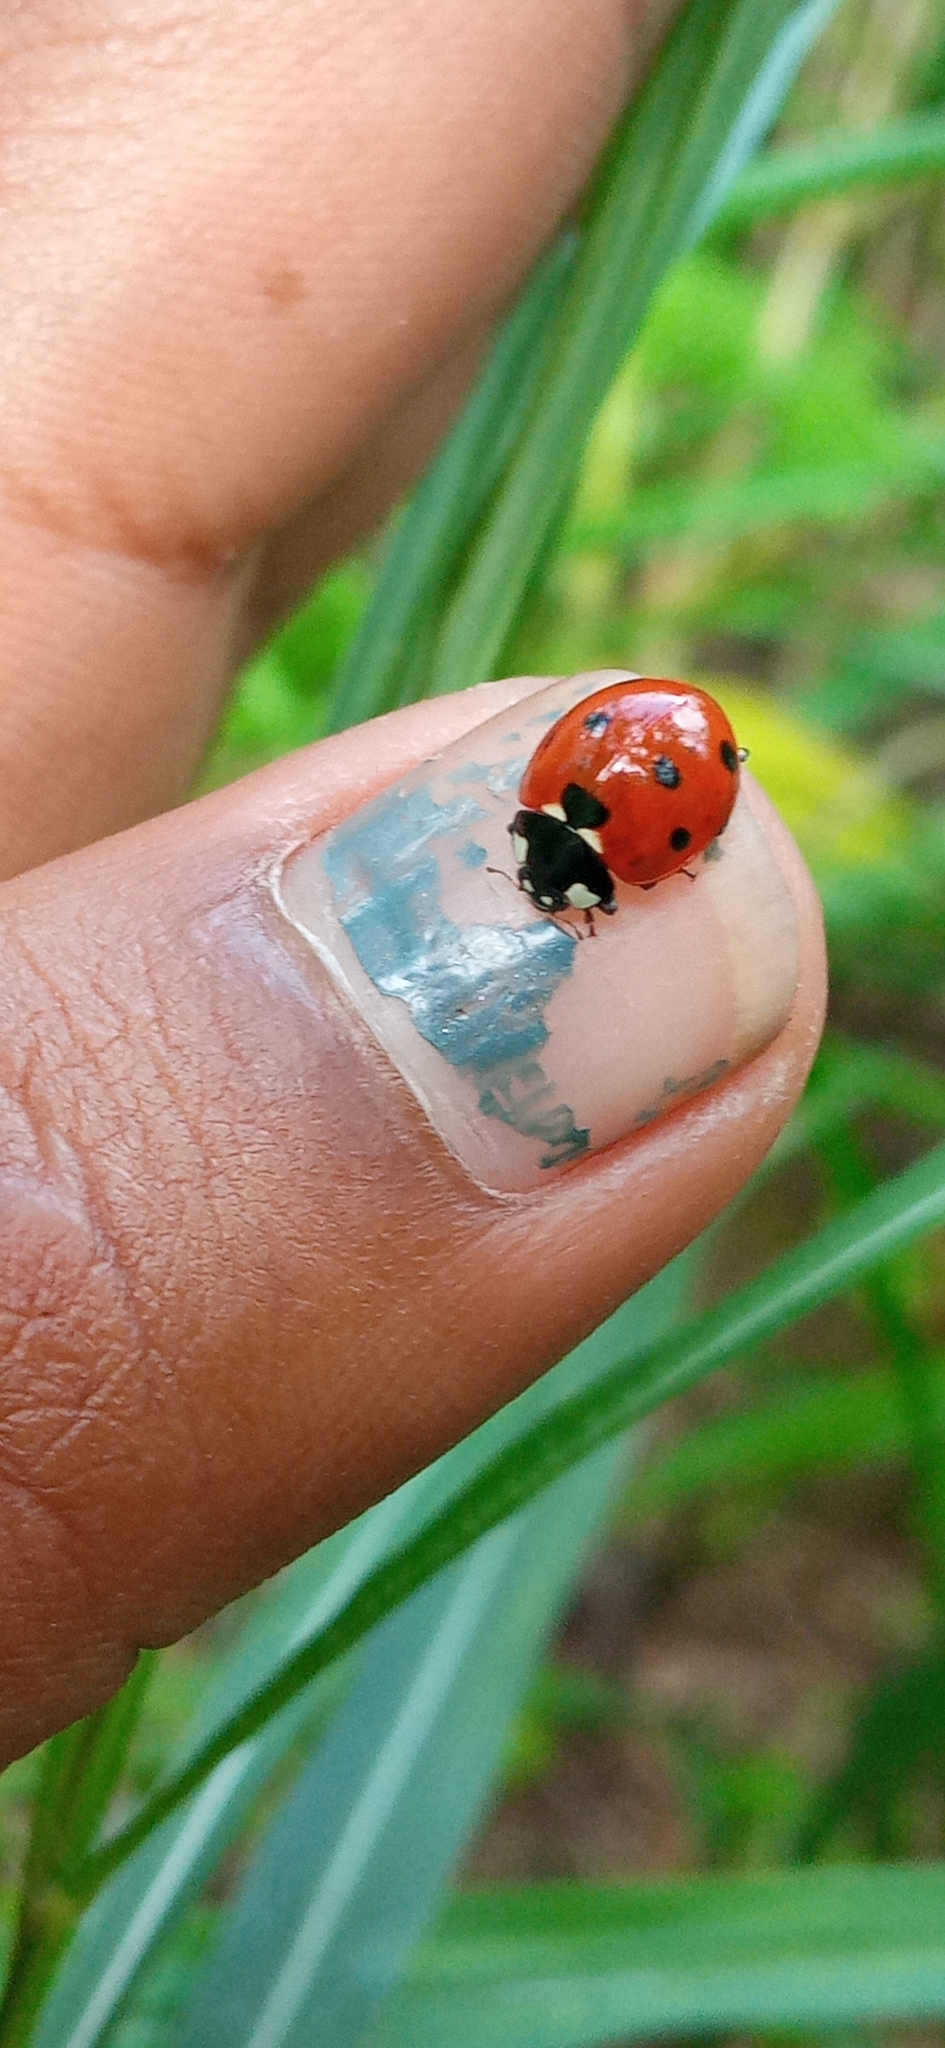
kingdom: Animalia
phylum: Arthropoda
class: Insecta
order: Coleoptera
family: Coccinellidae
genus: Coccinella
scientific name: Coccinella septempunctata
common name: Sevenspotted lady beetle
